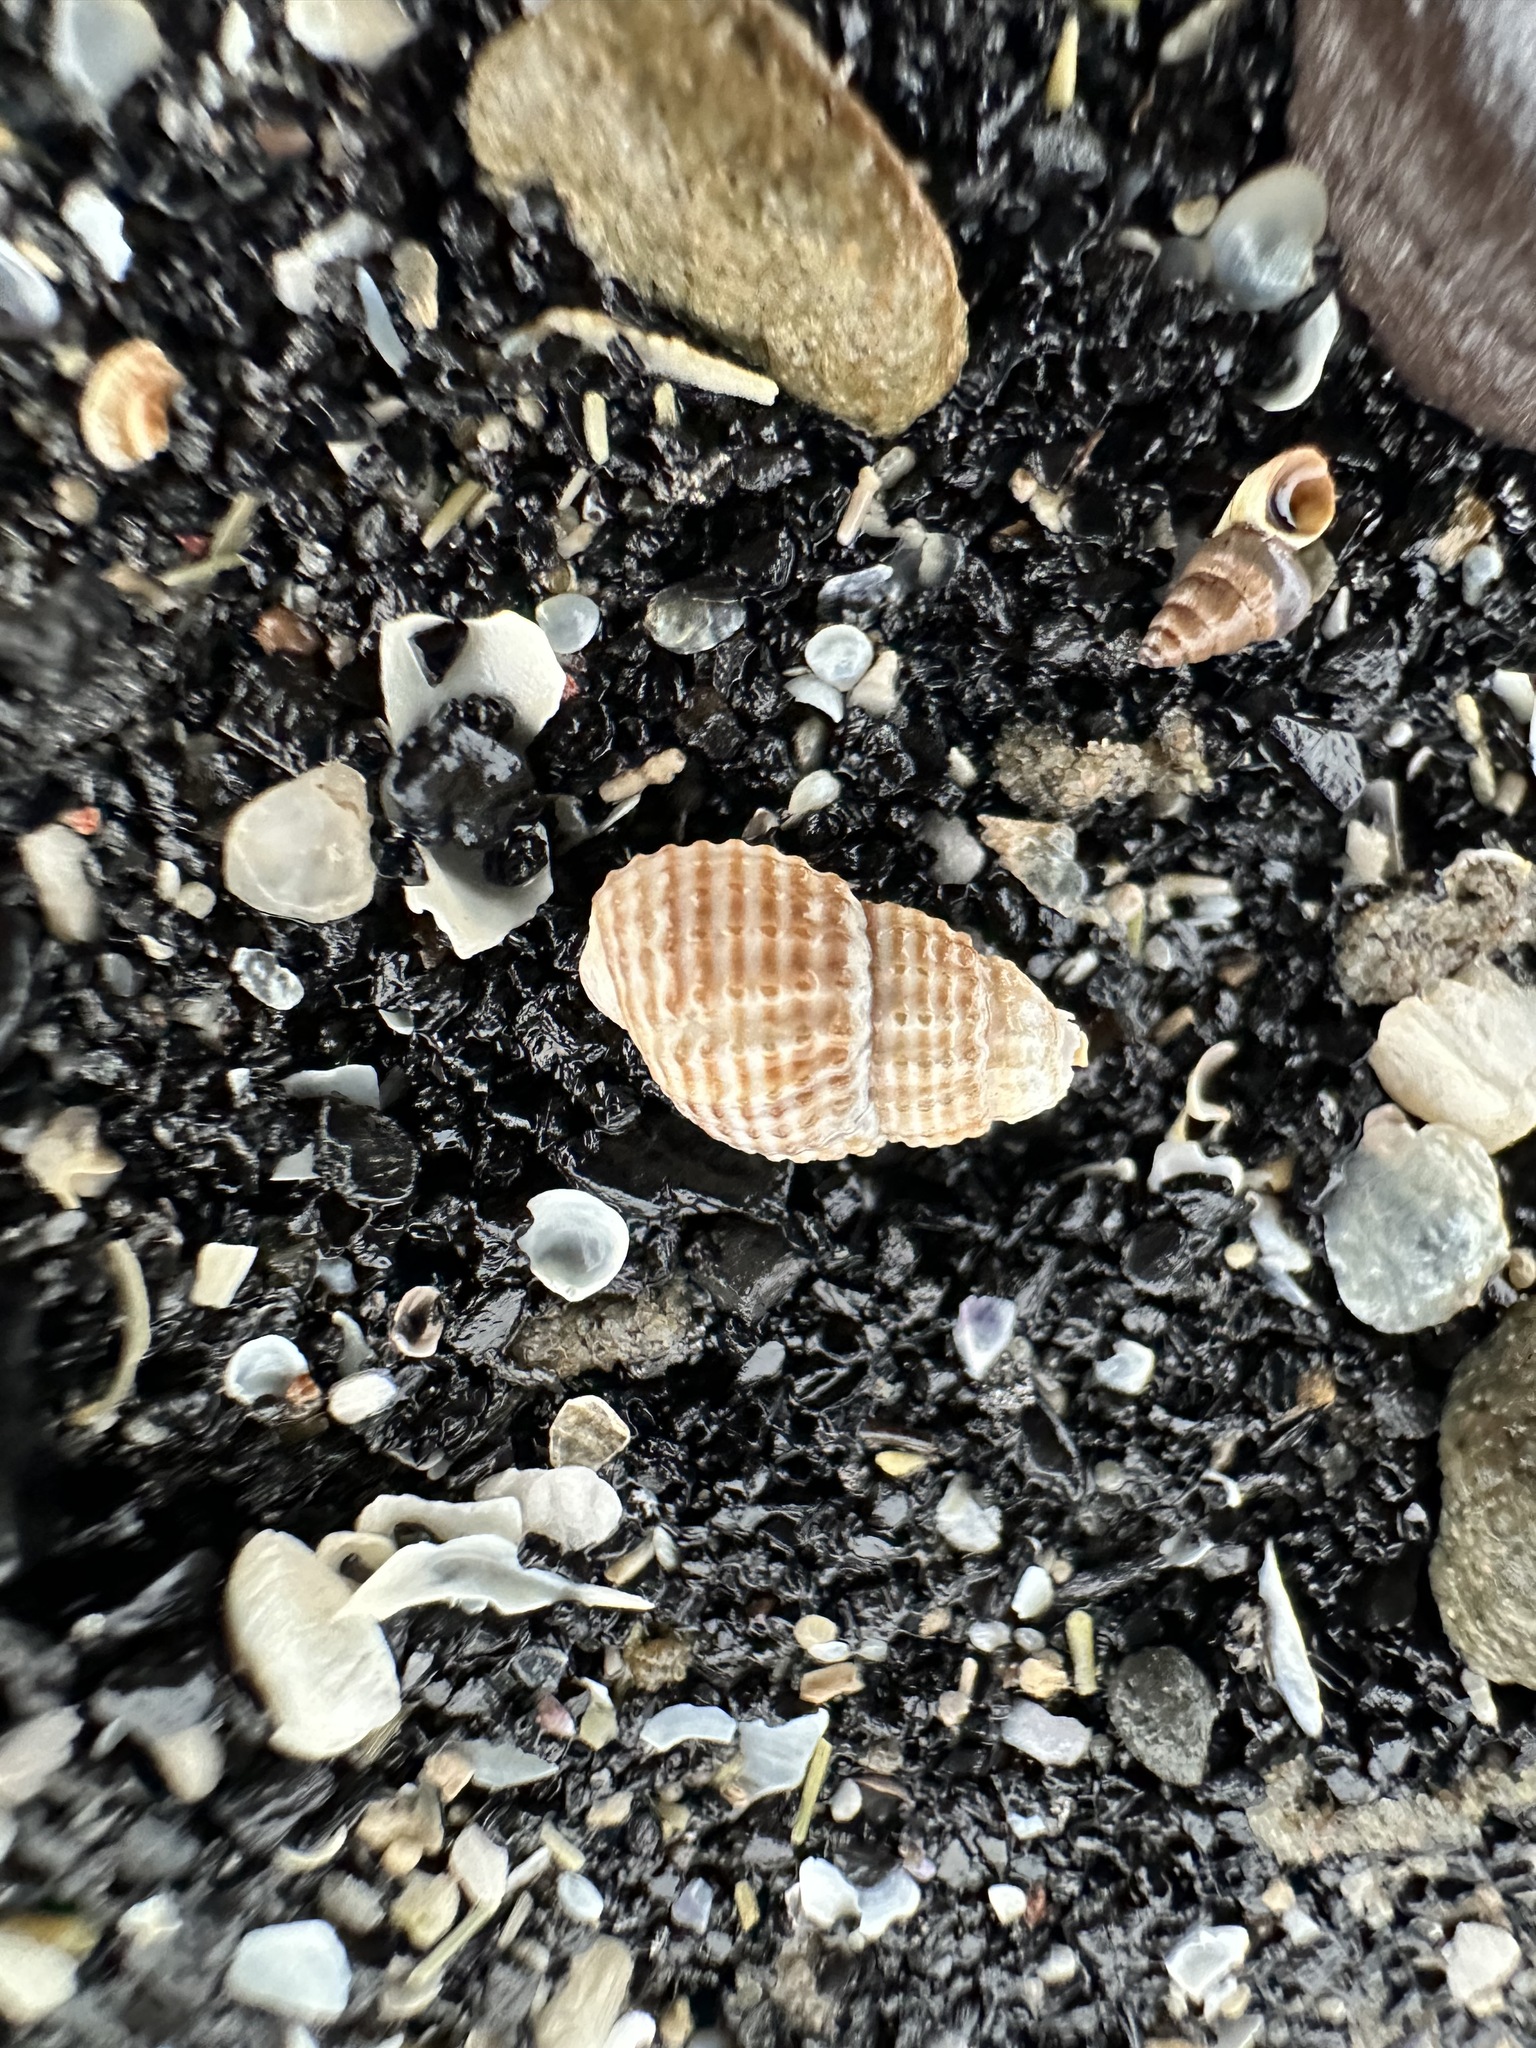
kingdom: Animalia
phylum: Mollusca
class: Gastropoda
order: Neogastropoda
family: Nassariidae
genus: Ilyanassa
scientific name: Ilyanassa trivittata
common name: Three-line mudsnail
